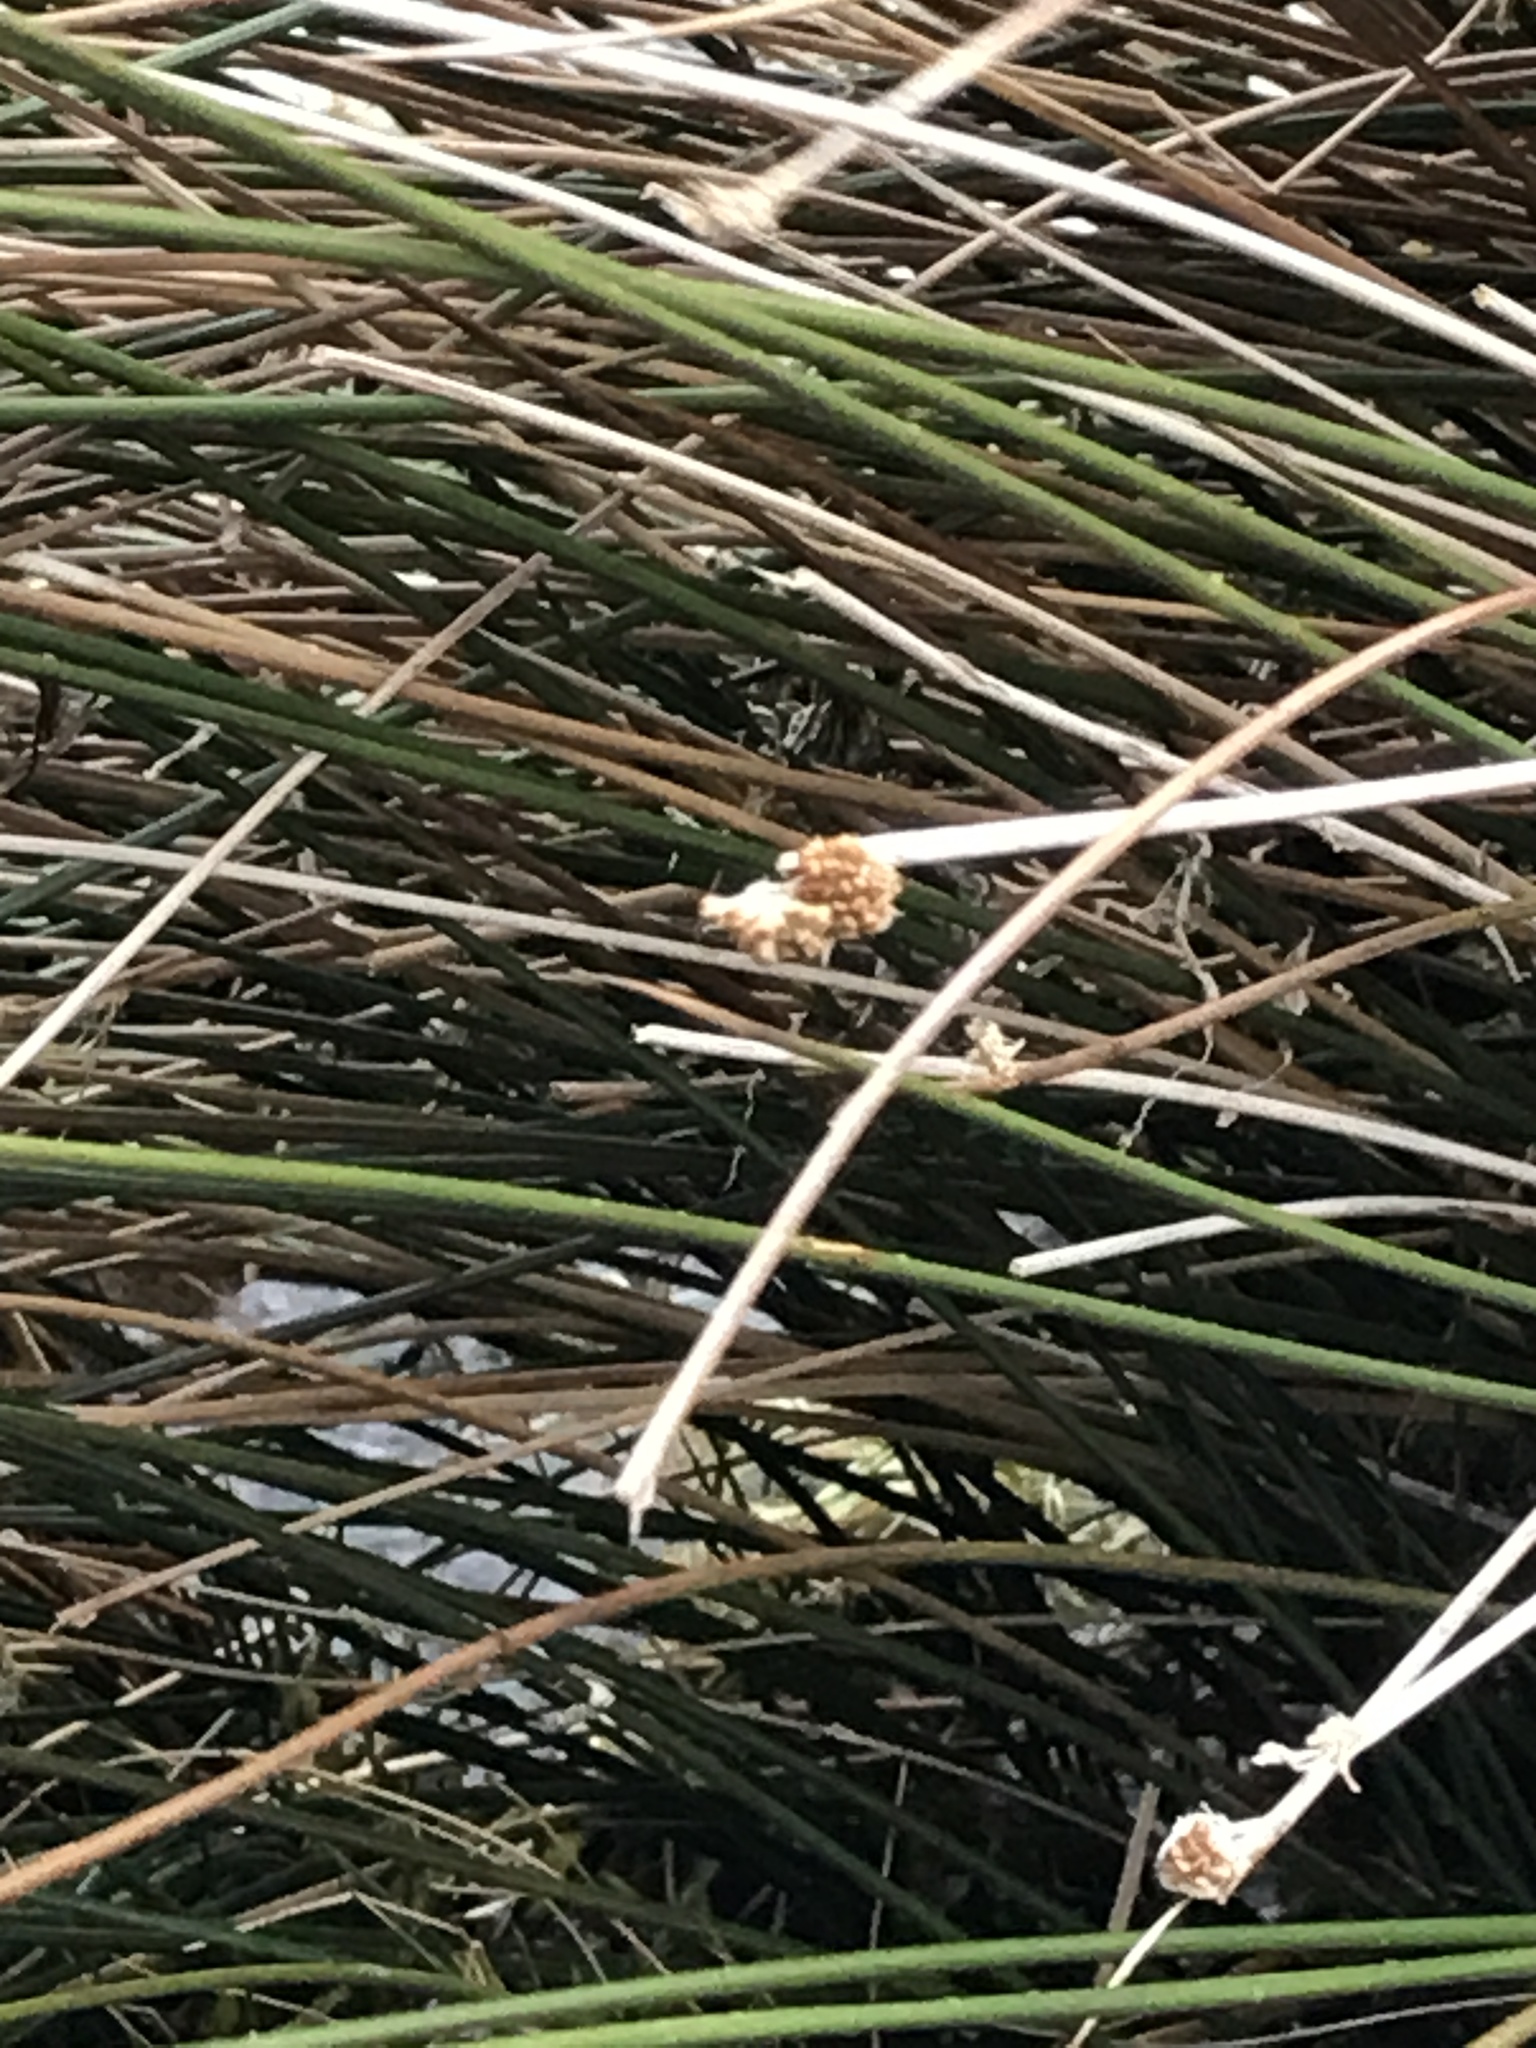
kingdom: Plantae
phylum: Tracheophyta
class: Liliopsida
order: Poales
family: Cyperaceae
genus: Ficinia
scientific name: Ficinia nodosa
